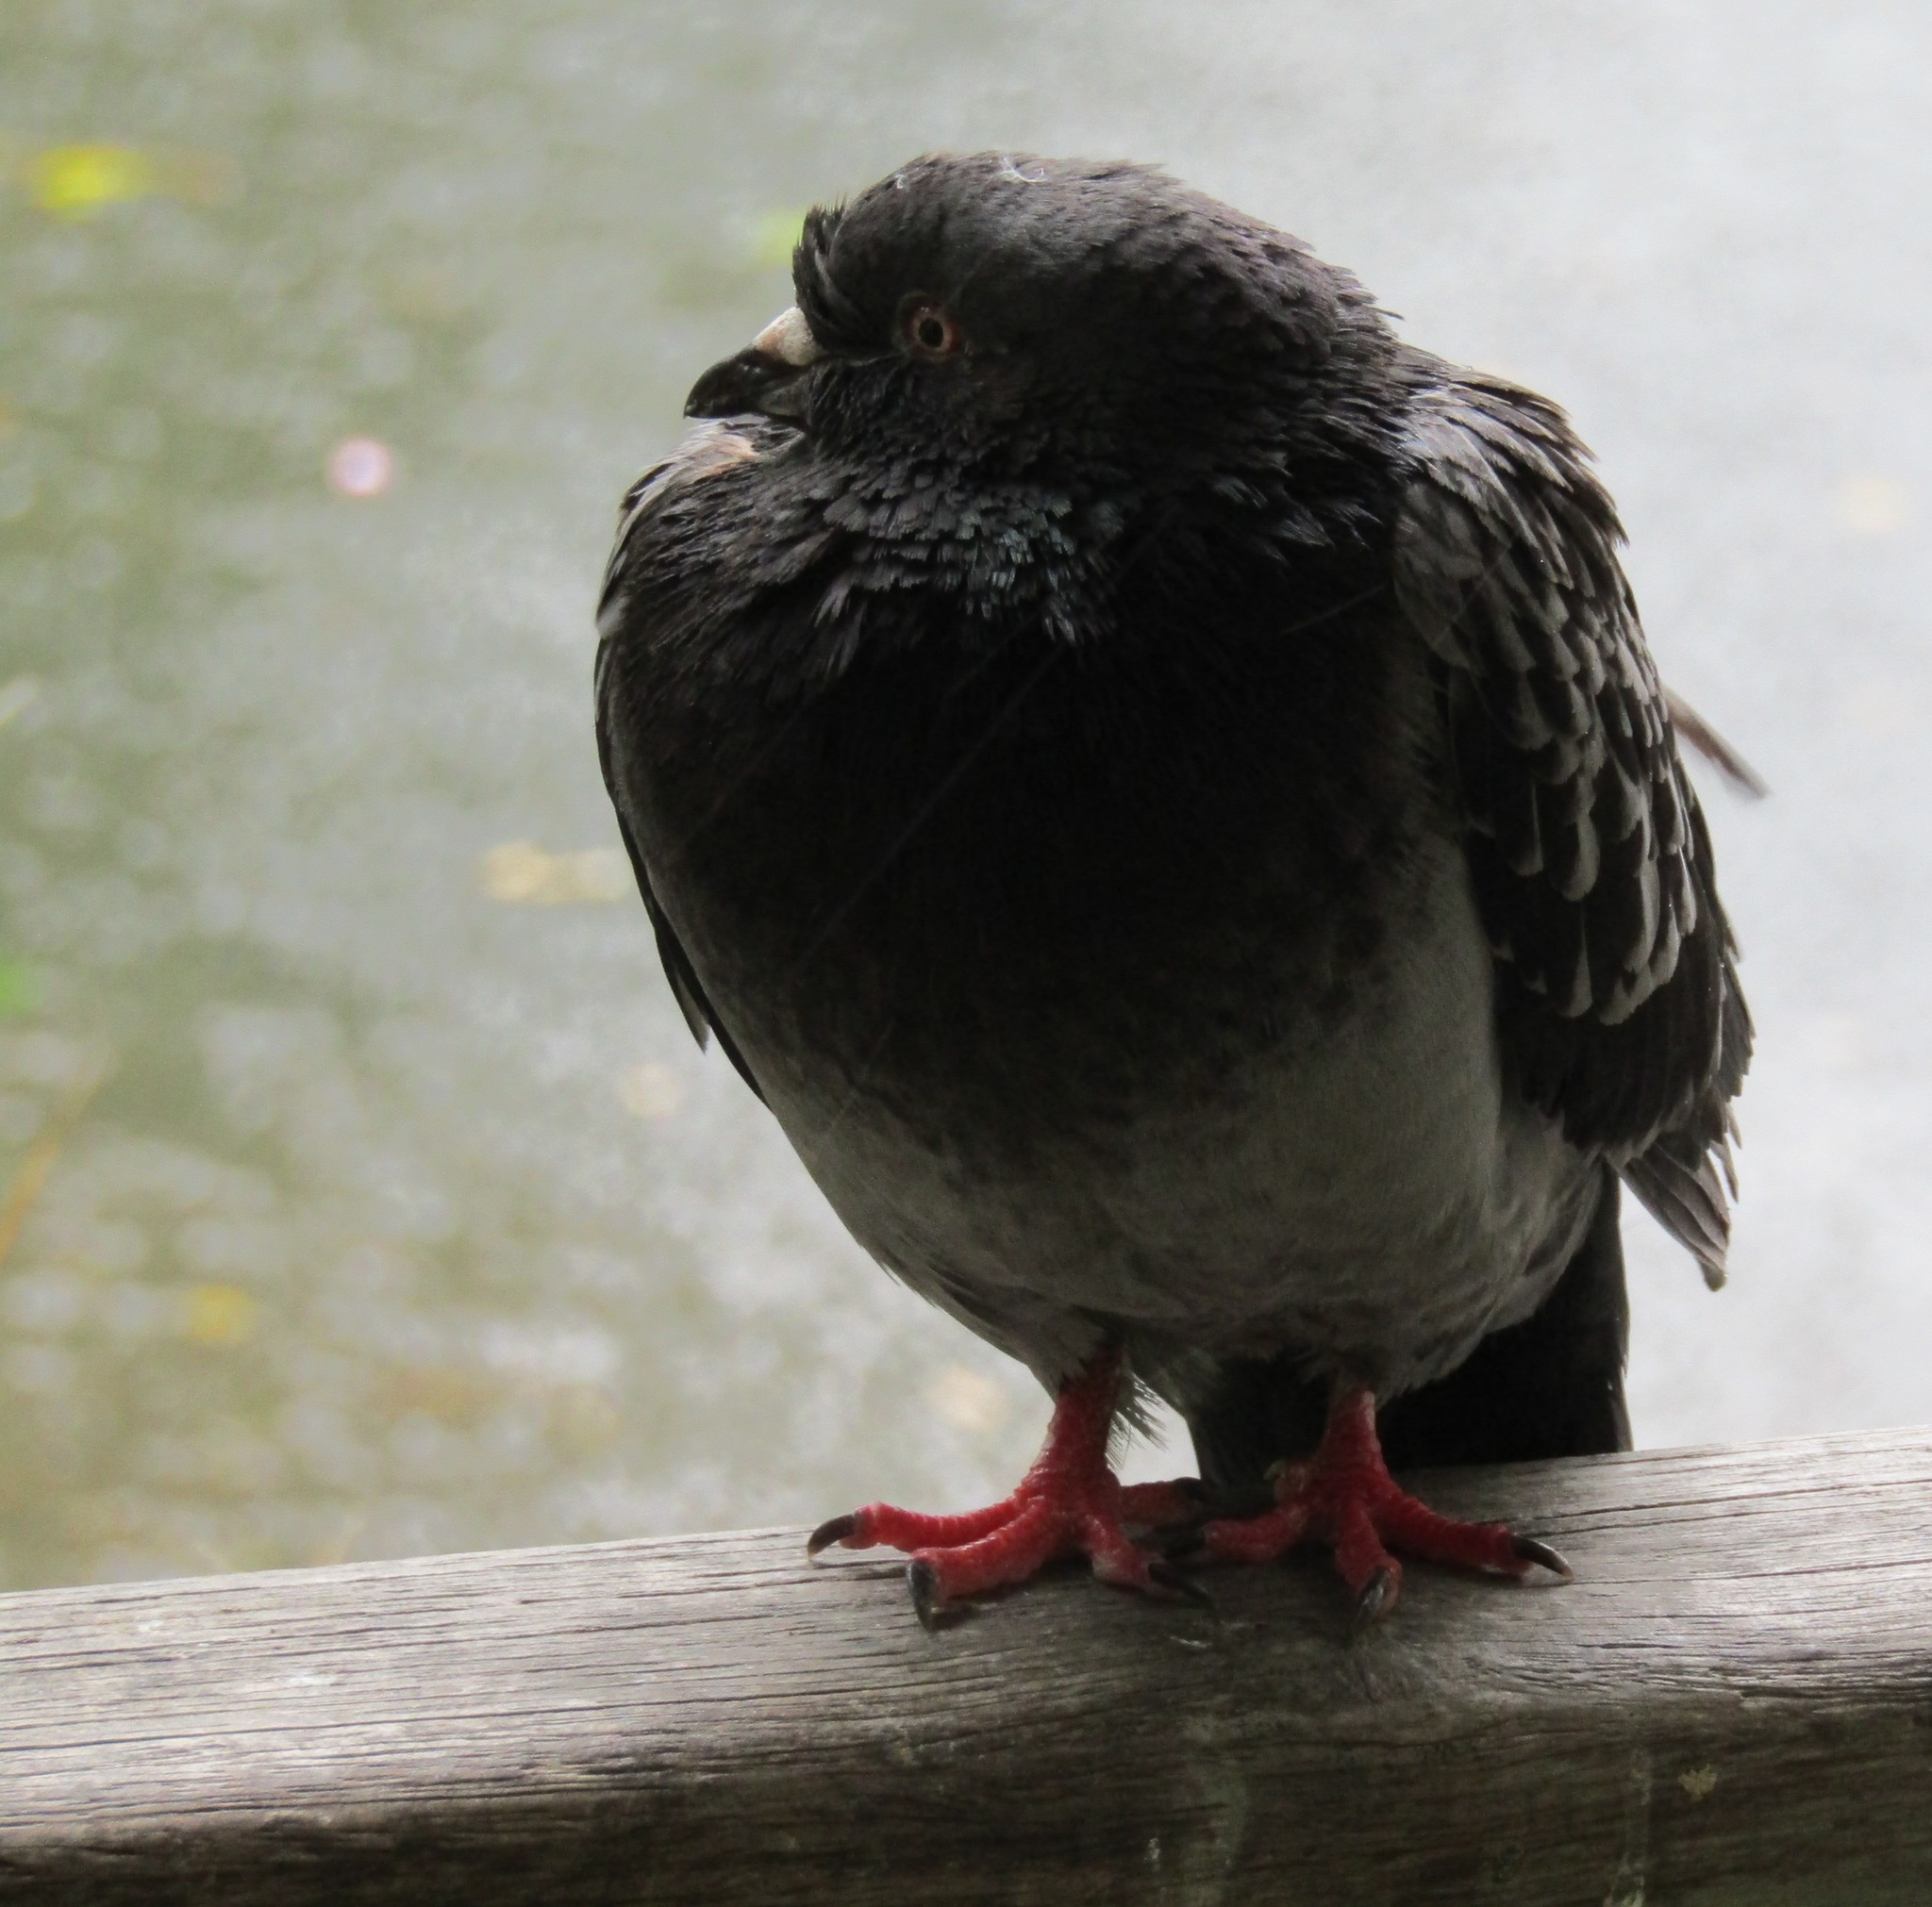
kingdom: Animalia
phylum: Chordata
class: Aves
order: Columbiformes
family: Columbidae
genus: Columba
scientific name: Columba livia
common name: Rock pigeon
